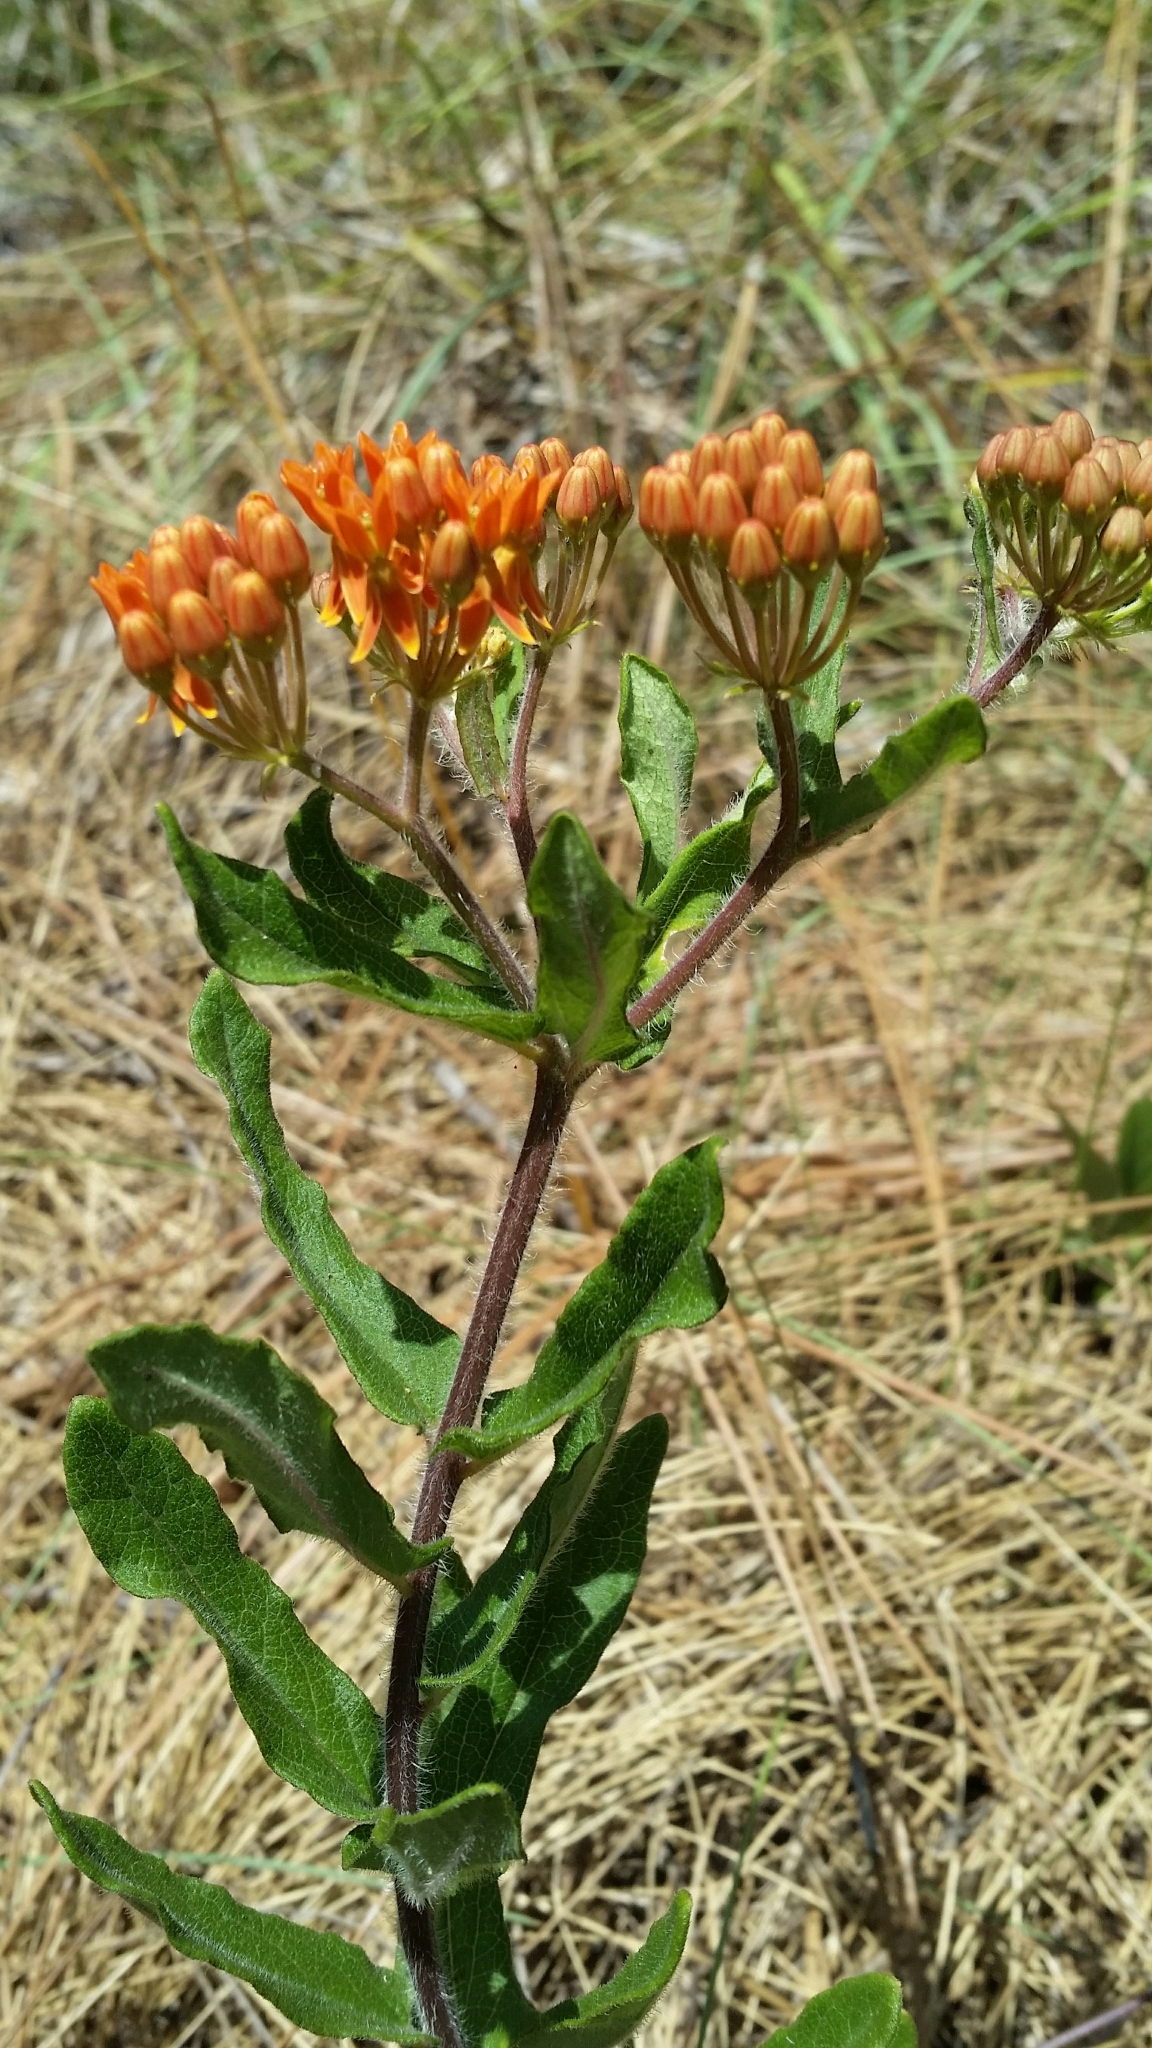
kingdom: Plantae
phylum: Tracheophyta
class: Magnoliopsida
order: Gentianales
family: Apocynaceae
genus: Asclepias
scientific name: Asclepias tuberosa
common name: Butterfly milkweed
